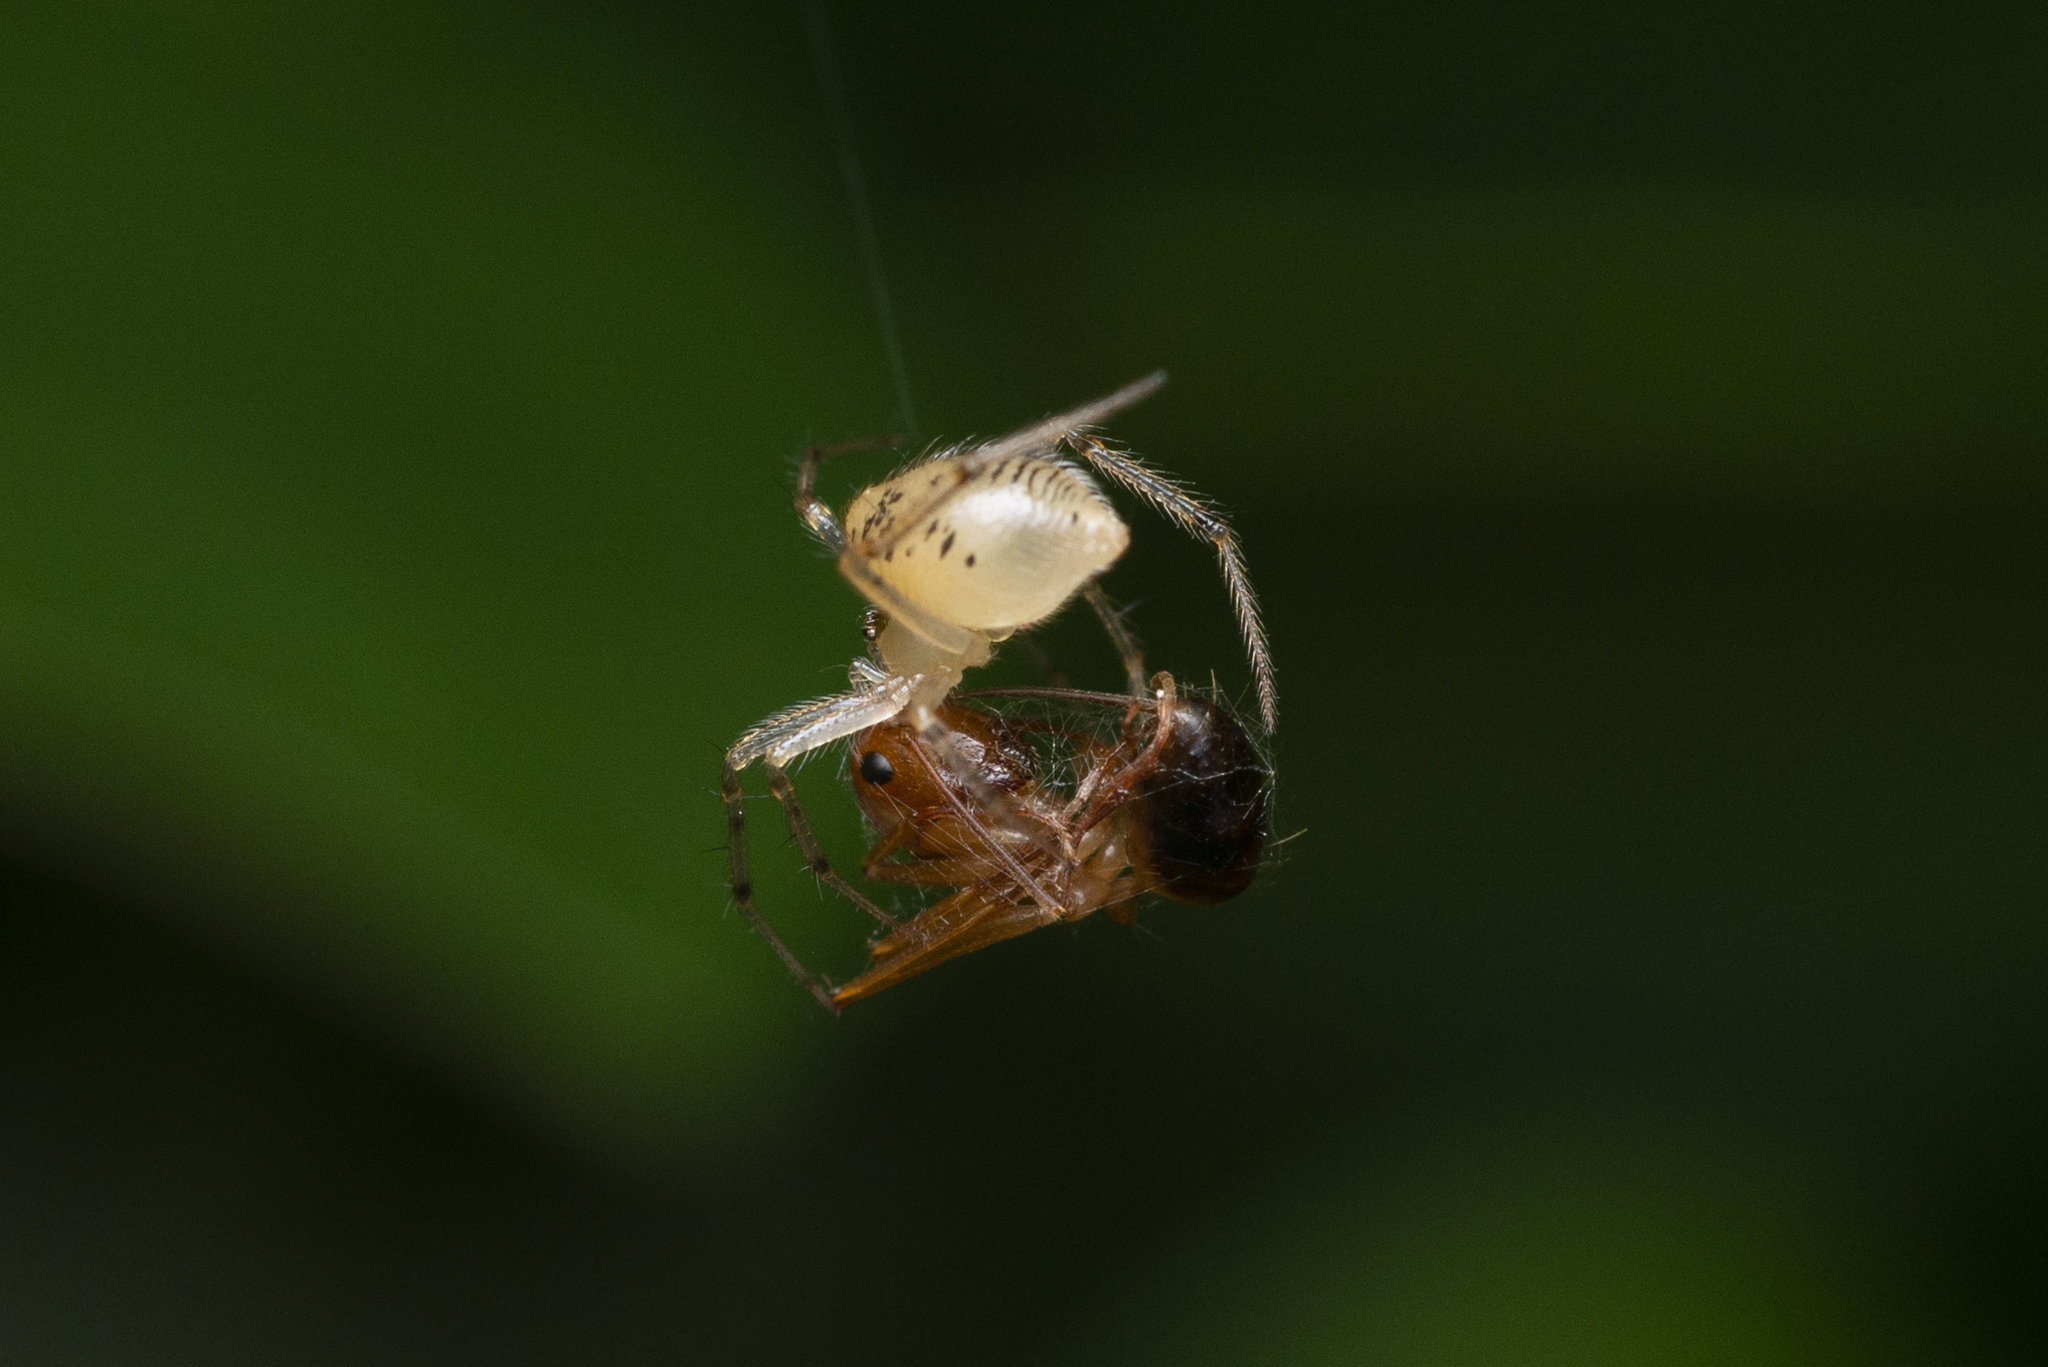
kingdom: Animalia
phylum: Arthropoda
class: Arachnida
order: Araneae
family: Theridiidae
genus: Phycosoma
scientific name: Phycosoma digitula
